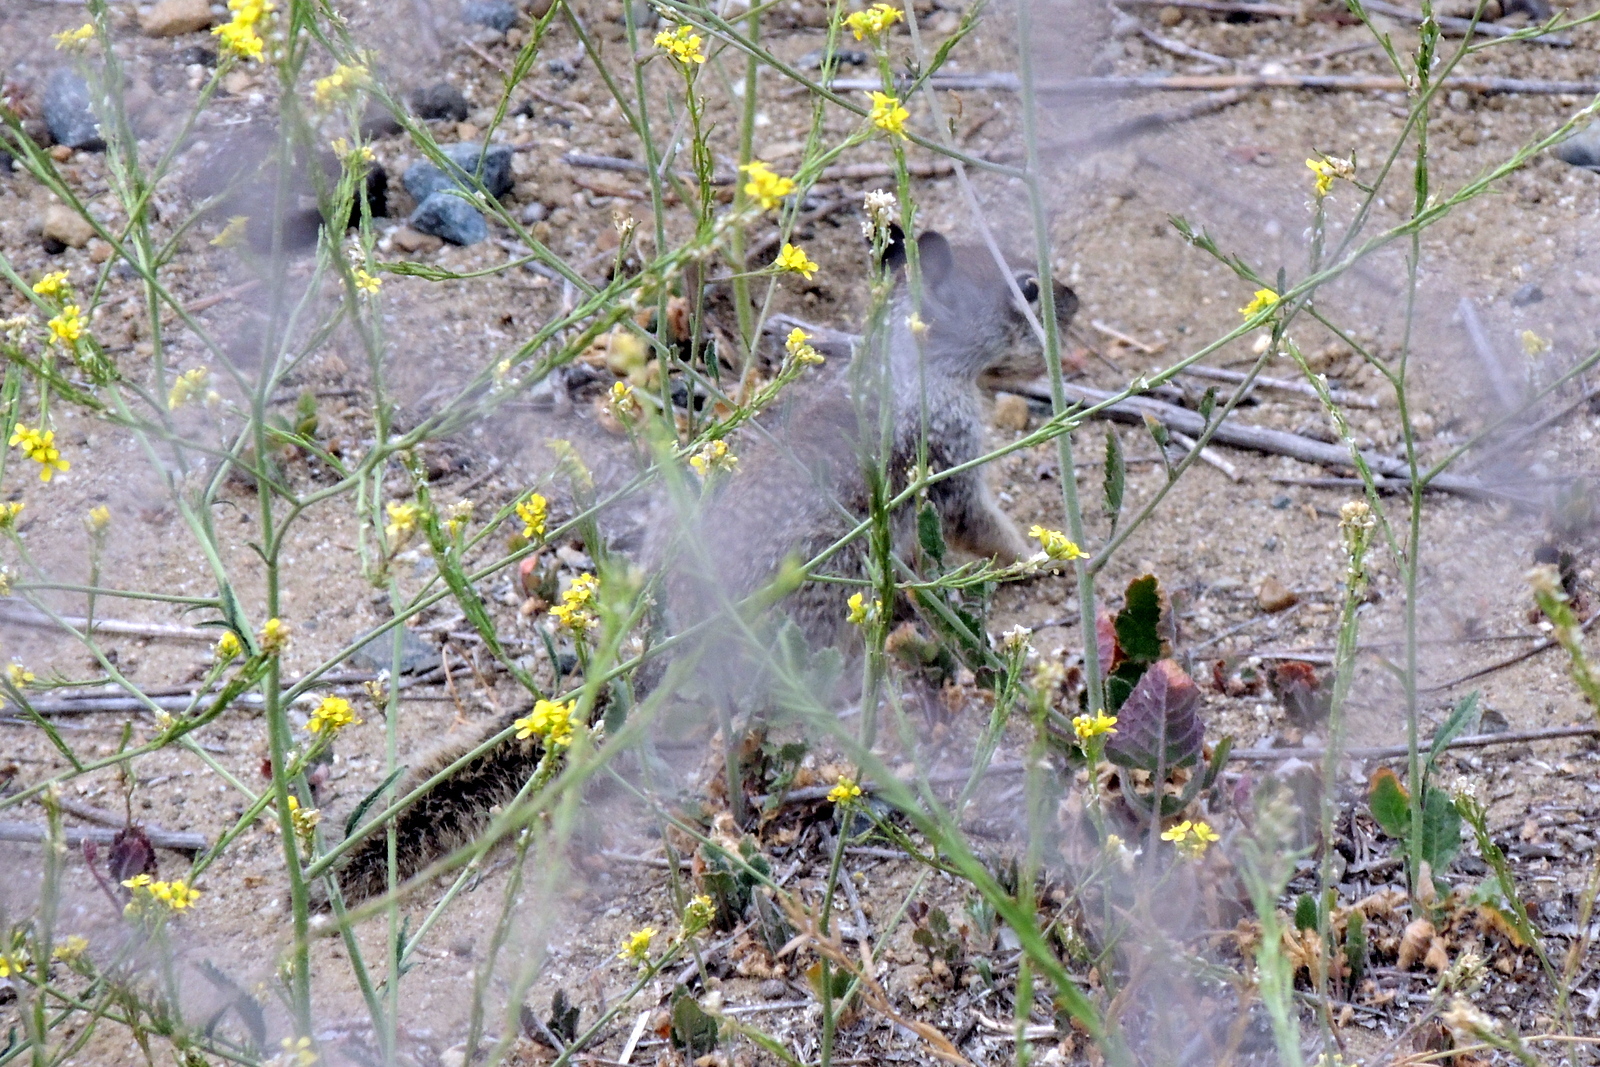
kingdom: Animalia
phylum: Chordata
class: Mammalia
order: Rodentia
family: Sciuridae
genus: Otospermophilus
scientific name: Otospermophilus beecheyi
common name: California ground squirrel
